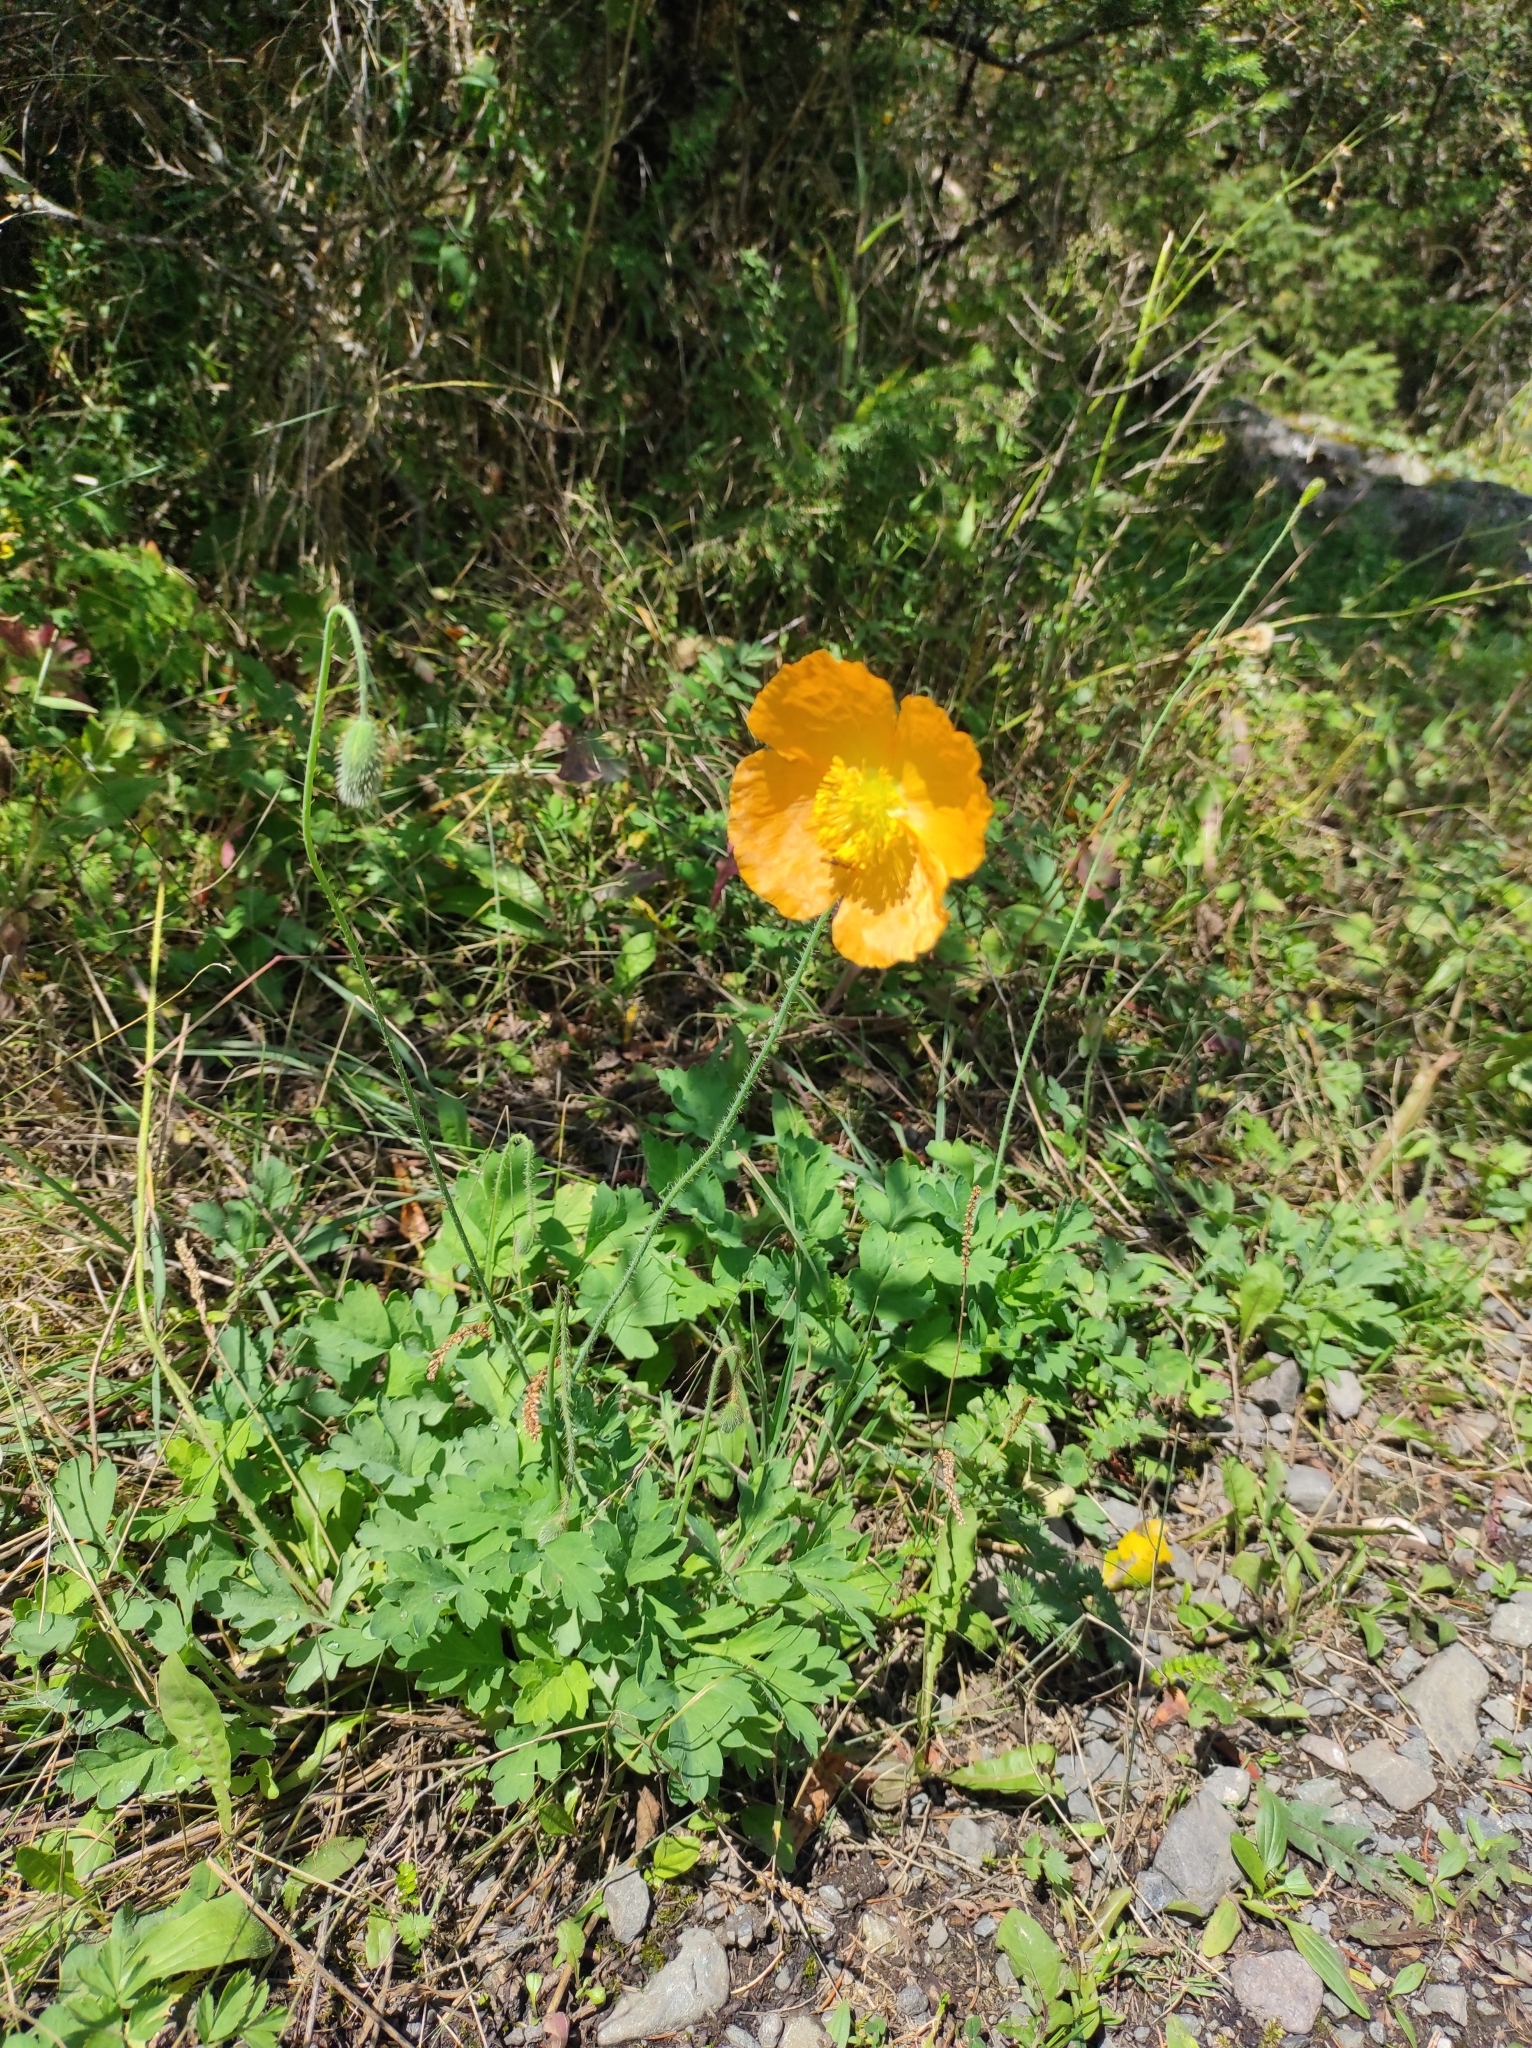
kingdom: Plantae
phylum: Tracheophyta
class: Magnoliopsida
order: Ranunculales
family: Papaveraceae
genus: Oreomecon
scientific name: Oreomecon
